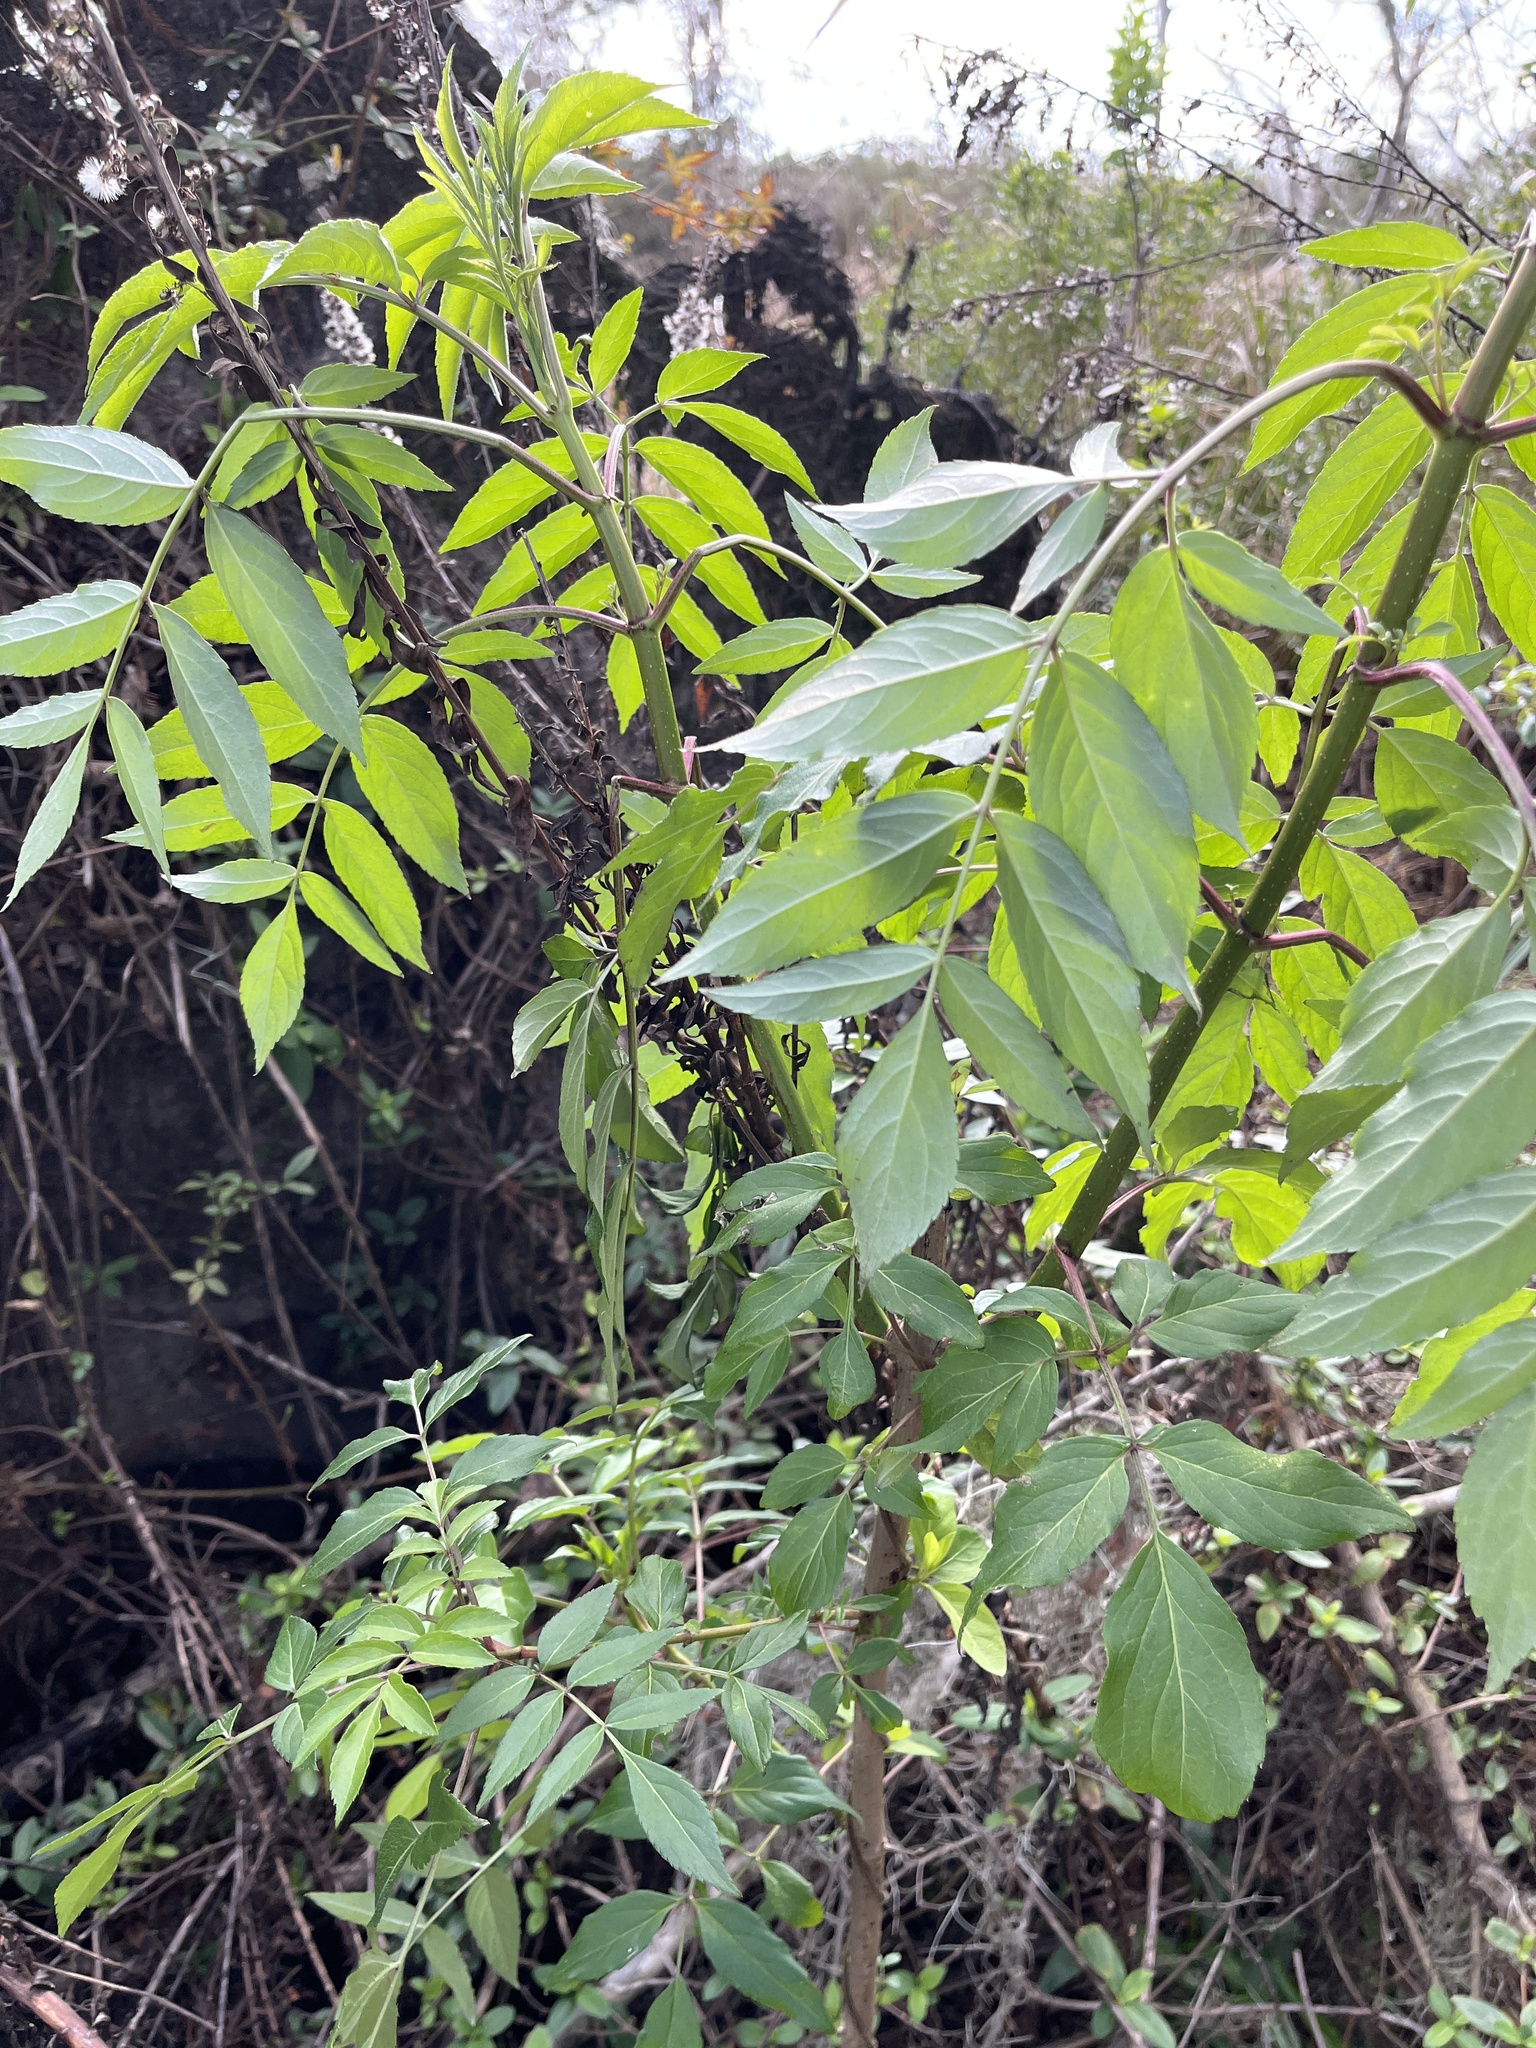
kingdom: Plantae
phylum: Tracheophyta
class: Magnoliopsida
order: Dipsacales
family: Viburnaceae
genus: Sambucus
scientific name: Sambucus canadensis
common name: American elder
